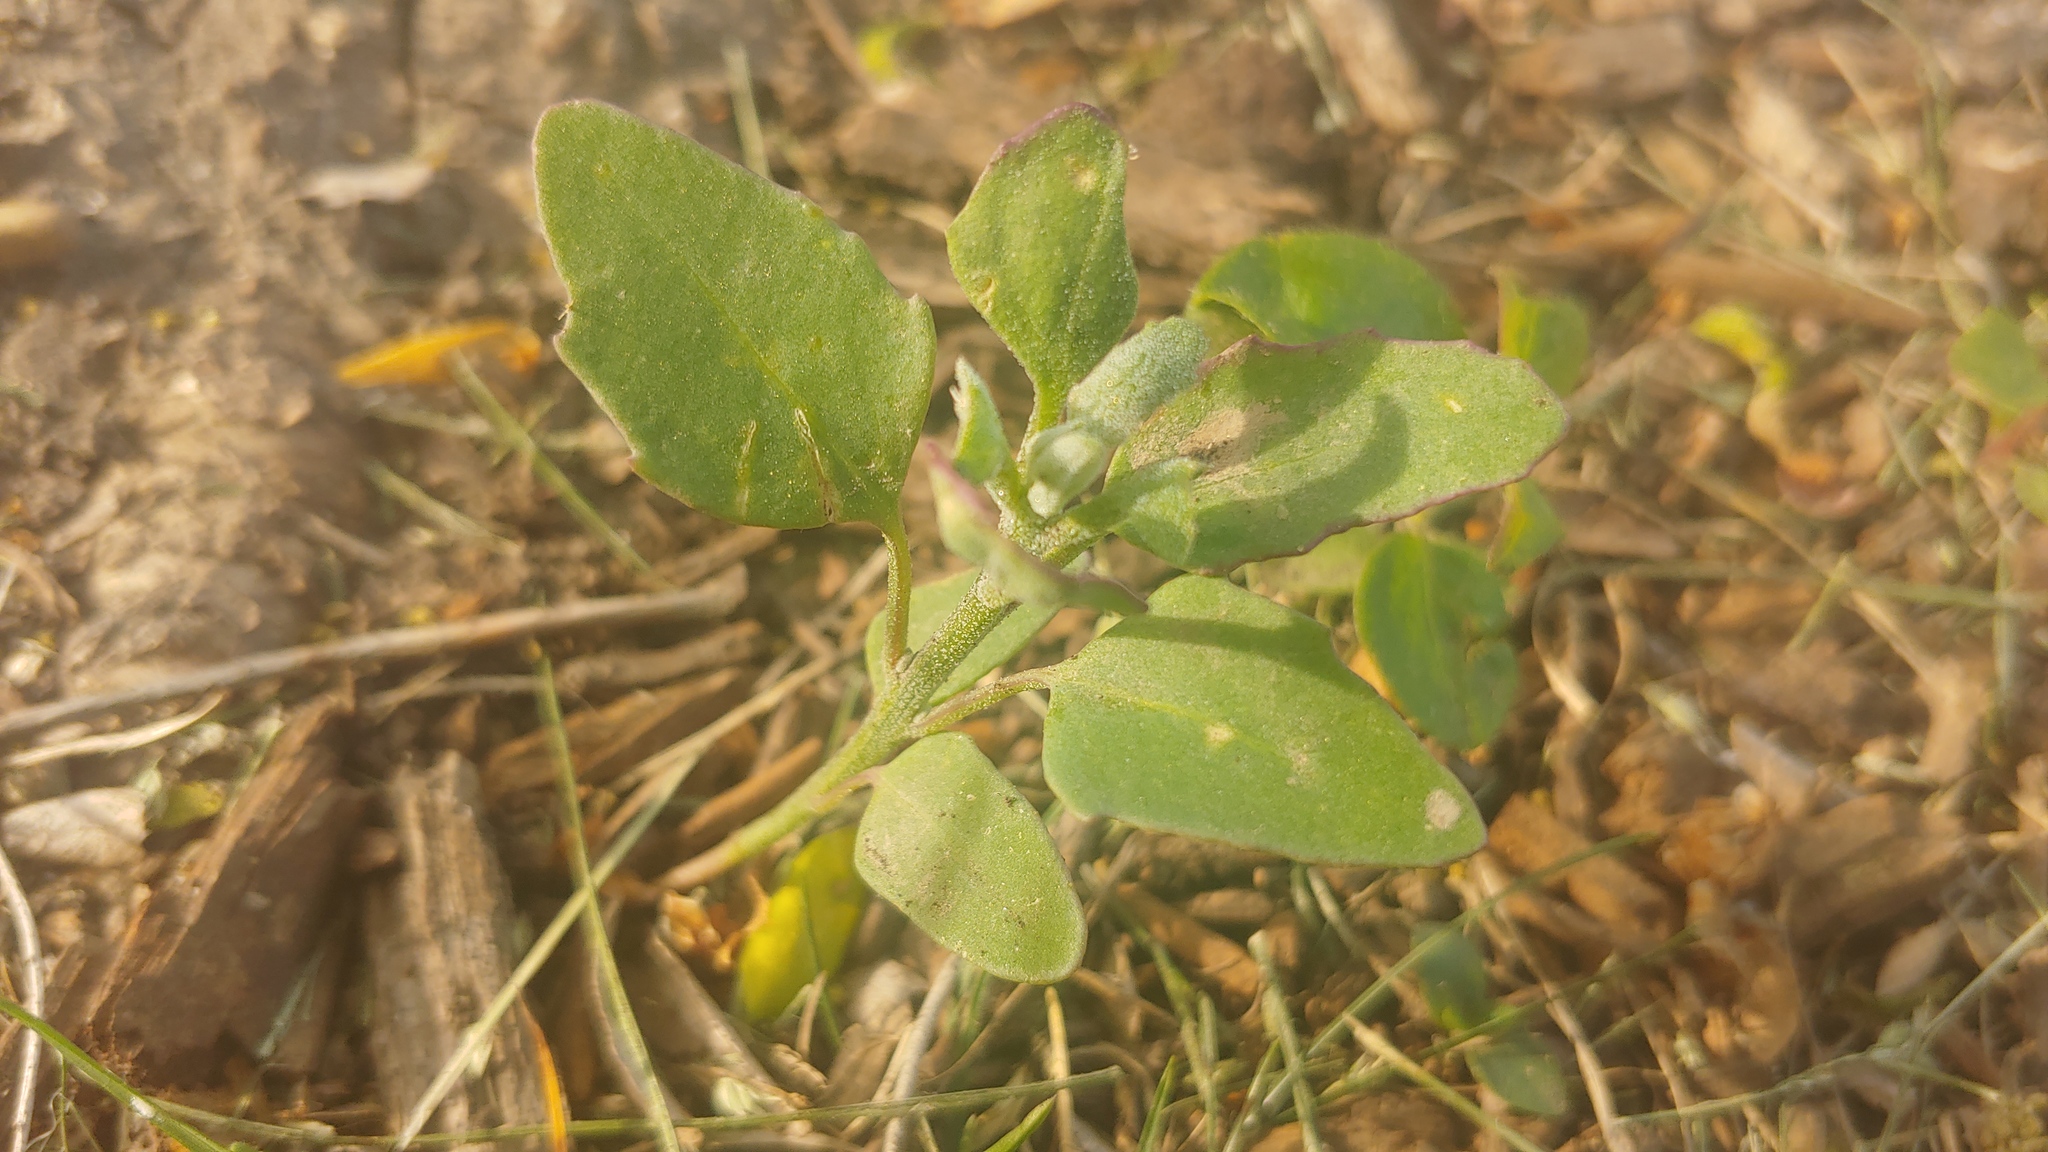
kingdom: Plantae
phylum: Tracheophyta
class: Magnoliopsida
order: Caryophyllales
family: Amaranthaceae
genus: Chenopodium
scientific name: Chenopodium album
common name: Fat-hen
